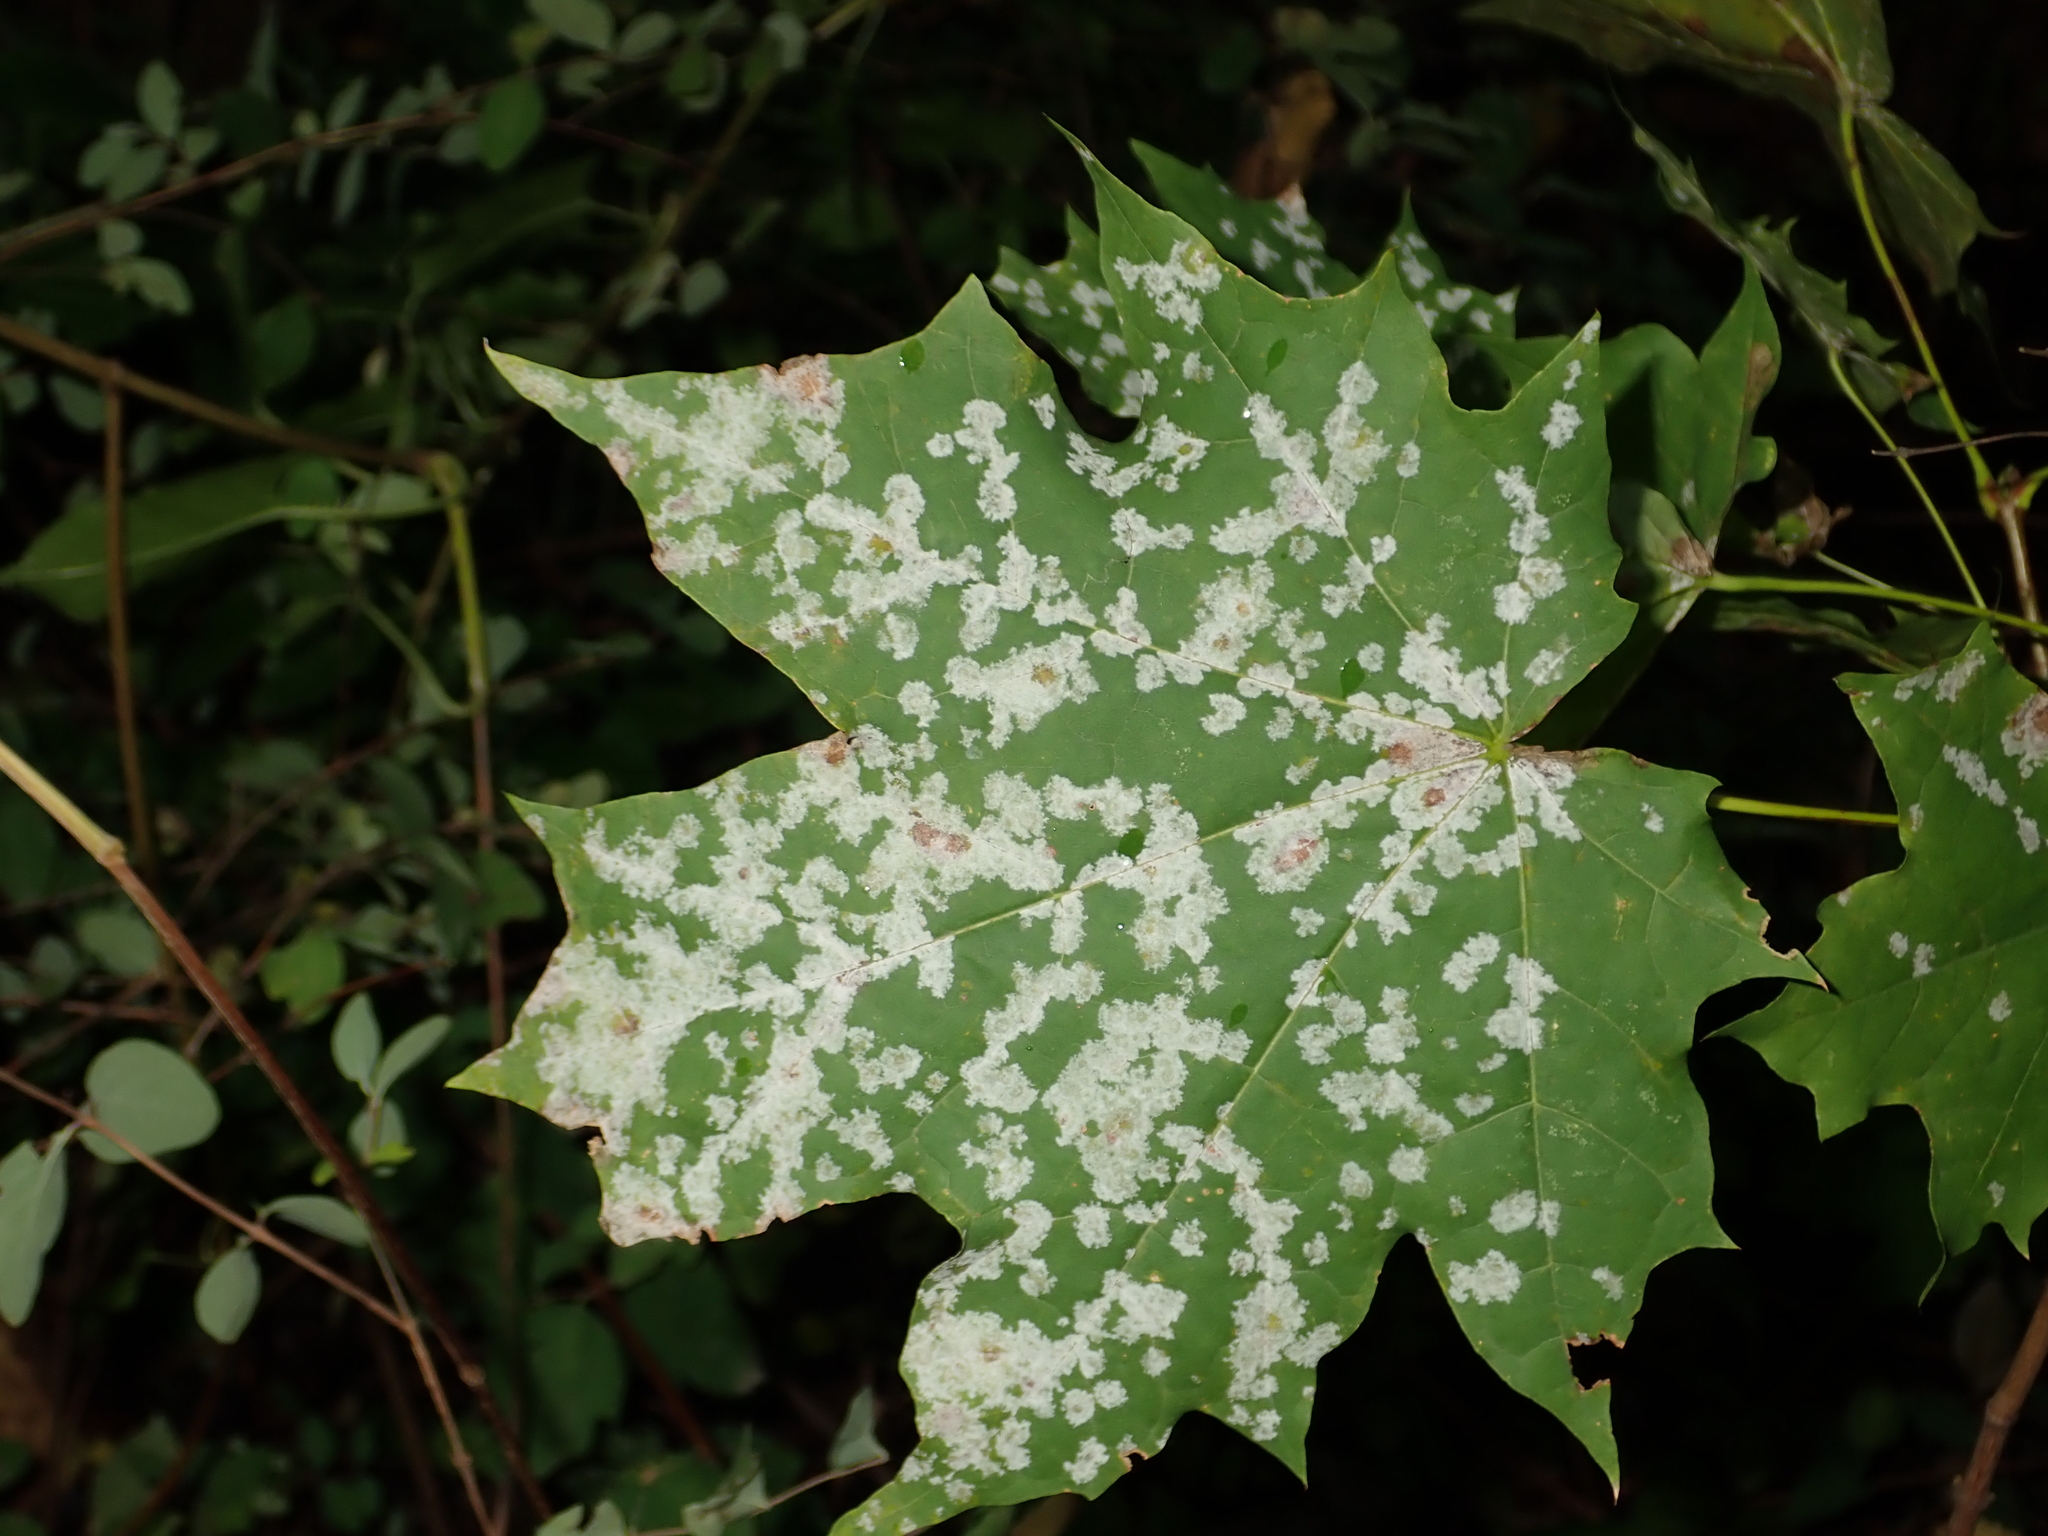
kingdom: Fungi
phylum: Ascomycota
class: Leotiomycetes
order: Helotiales
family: Erysiphaceae
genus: Sawadaea
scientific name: Sawadaea tulasnei
